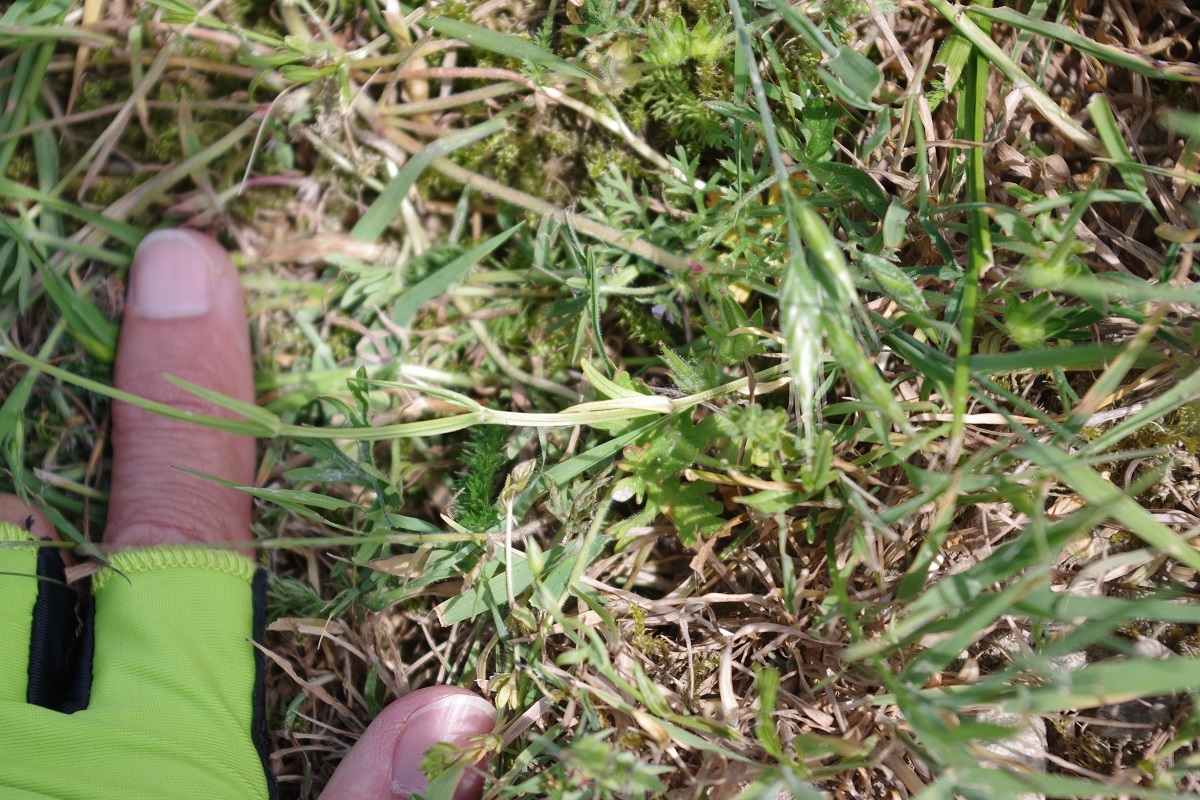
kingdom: Plantae
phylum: Tracheophyta
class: Magnoliopsida
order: Caryophyllales
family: Caryophyllaceae
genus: Stellaria
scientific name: Stellaria graminea
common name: Grass-like starwort
